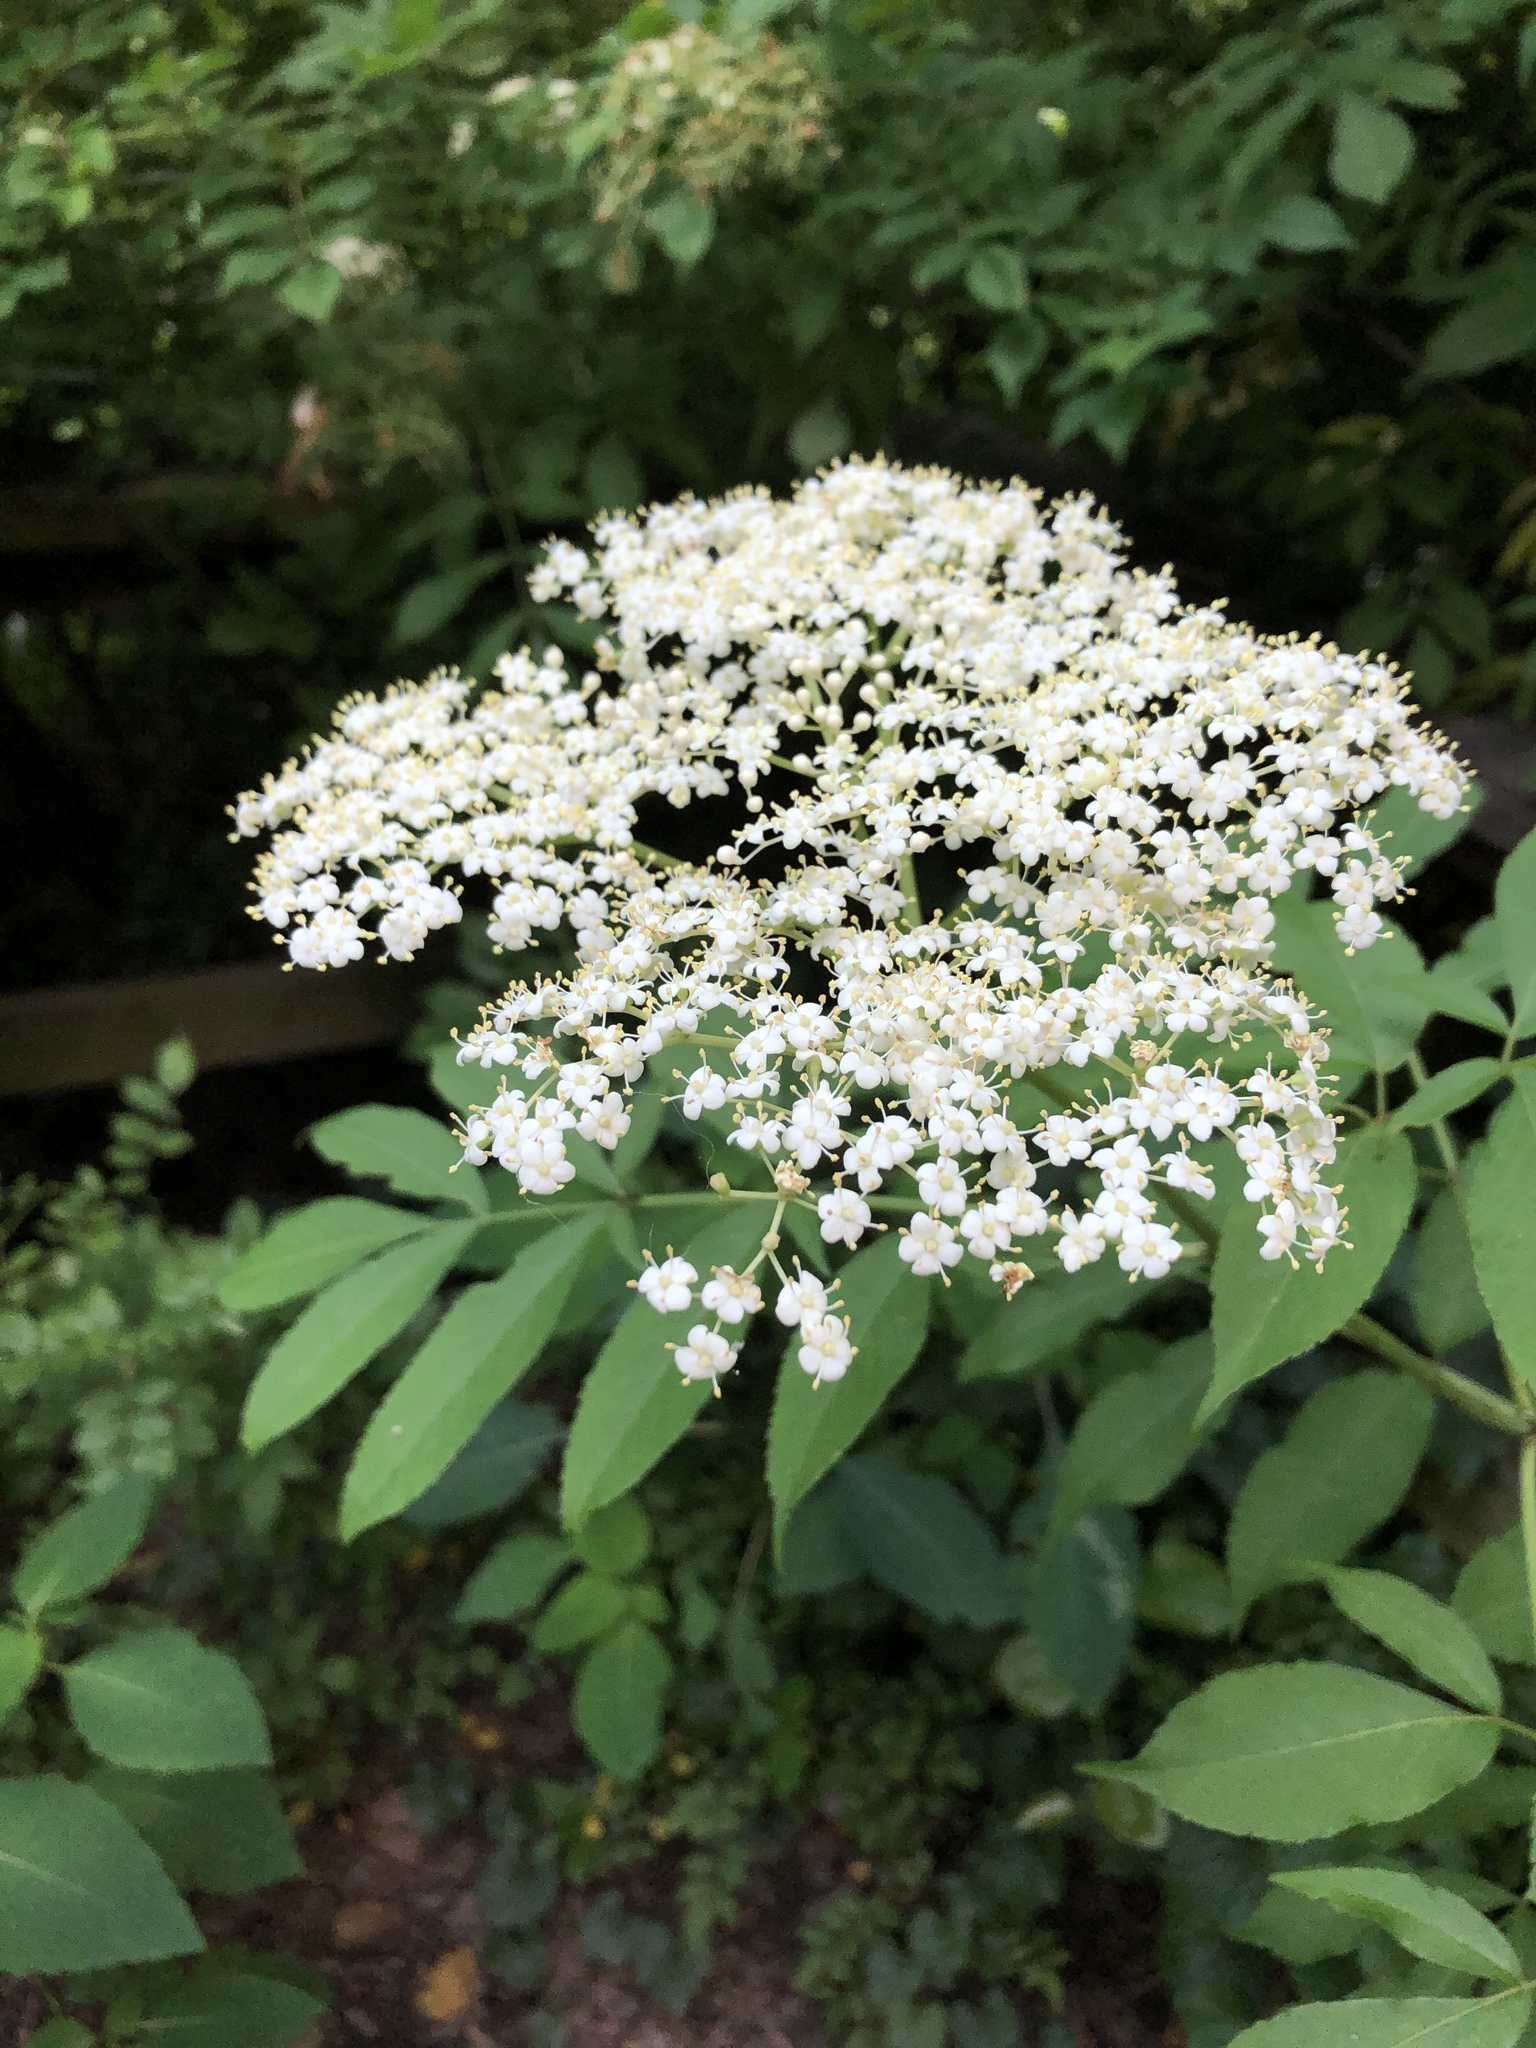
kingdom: Plantae
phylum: Tracheophyta
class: Magnoliopsida
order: Dipsacales
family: Viburnaceae
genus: Sambucus
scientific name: Sambucus canadensis
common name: American elder
